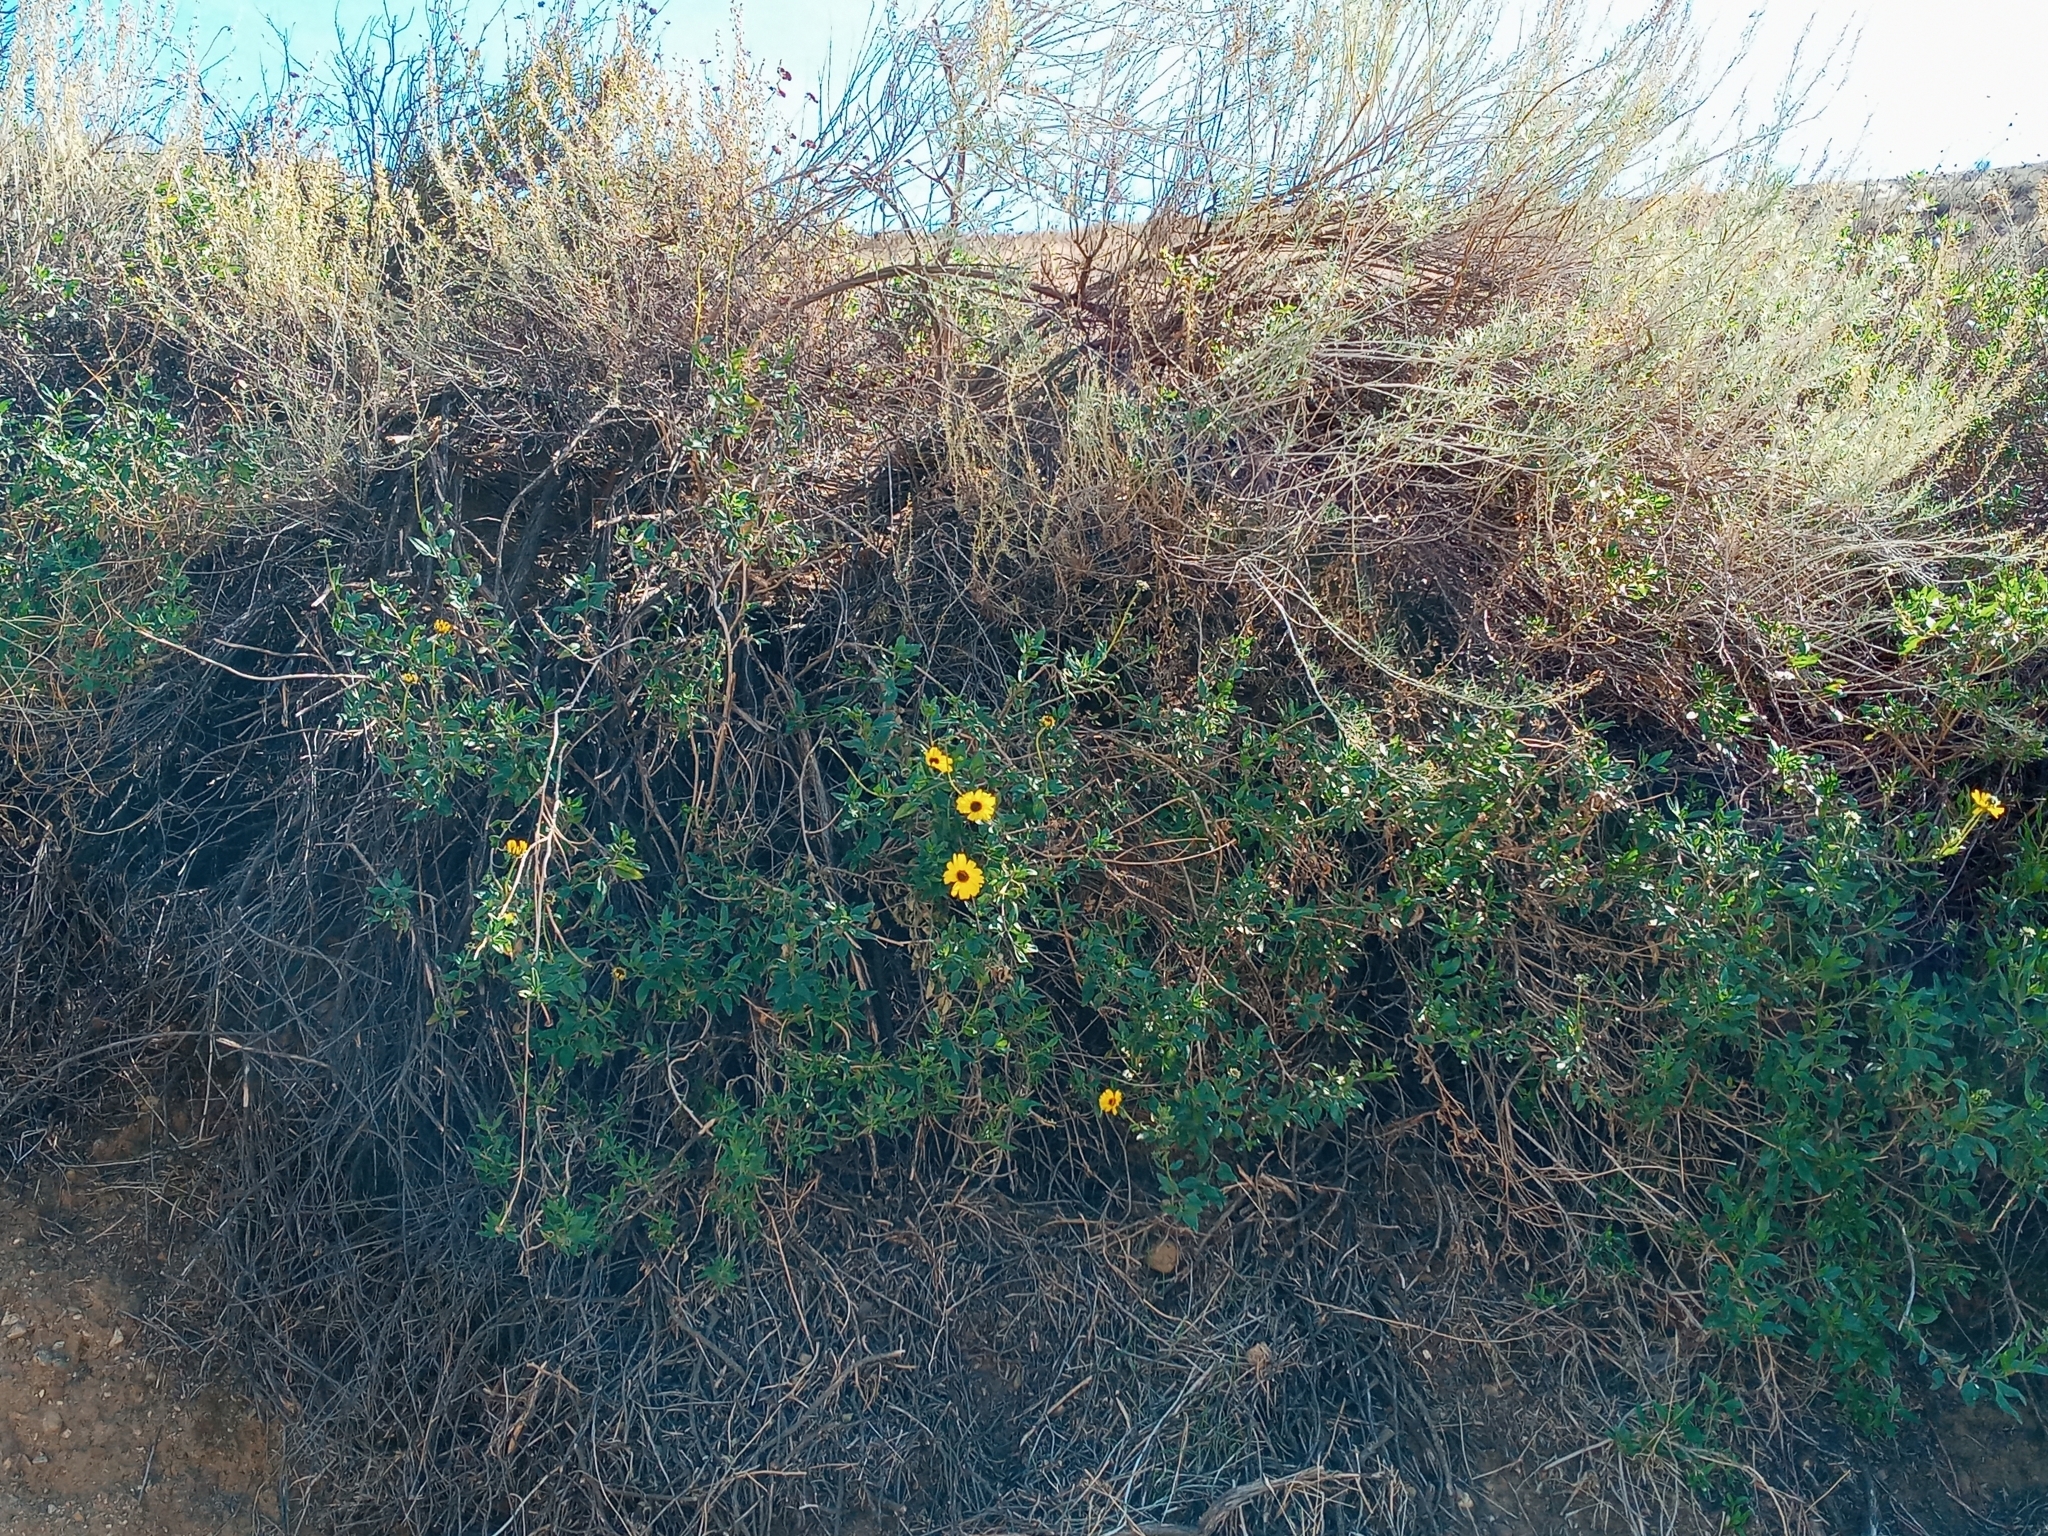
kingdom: Plantae
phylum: Tracheophyta
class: Magnoliopsida
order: Asterales
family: Asteraceae
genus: Encelia
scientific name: Encelia californica
